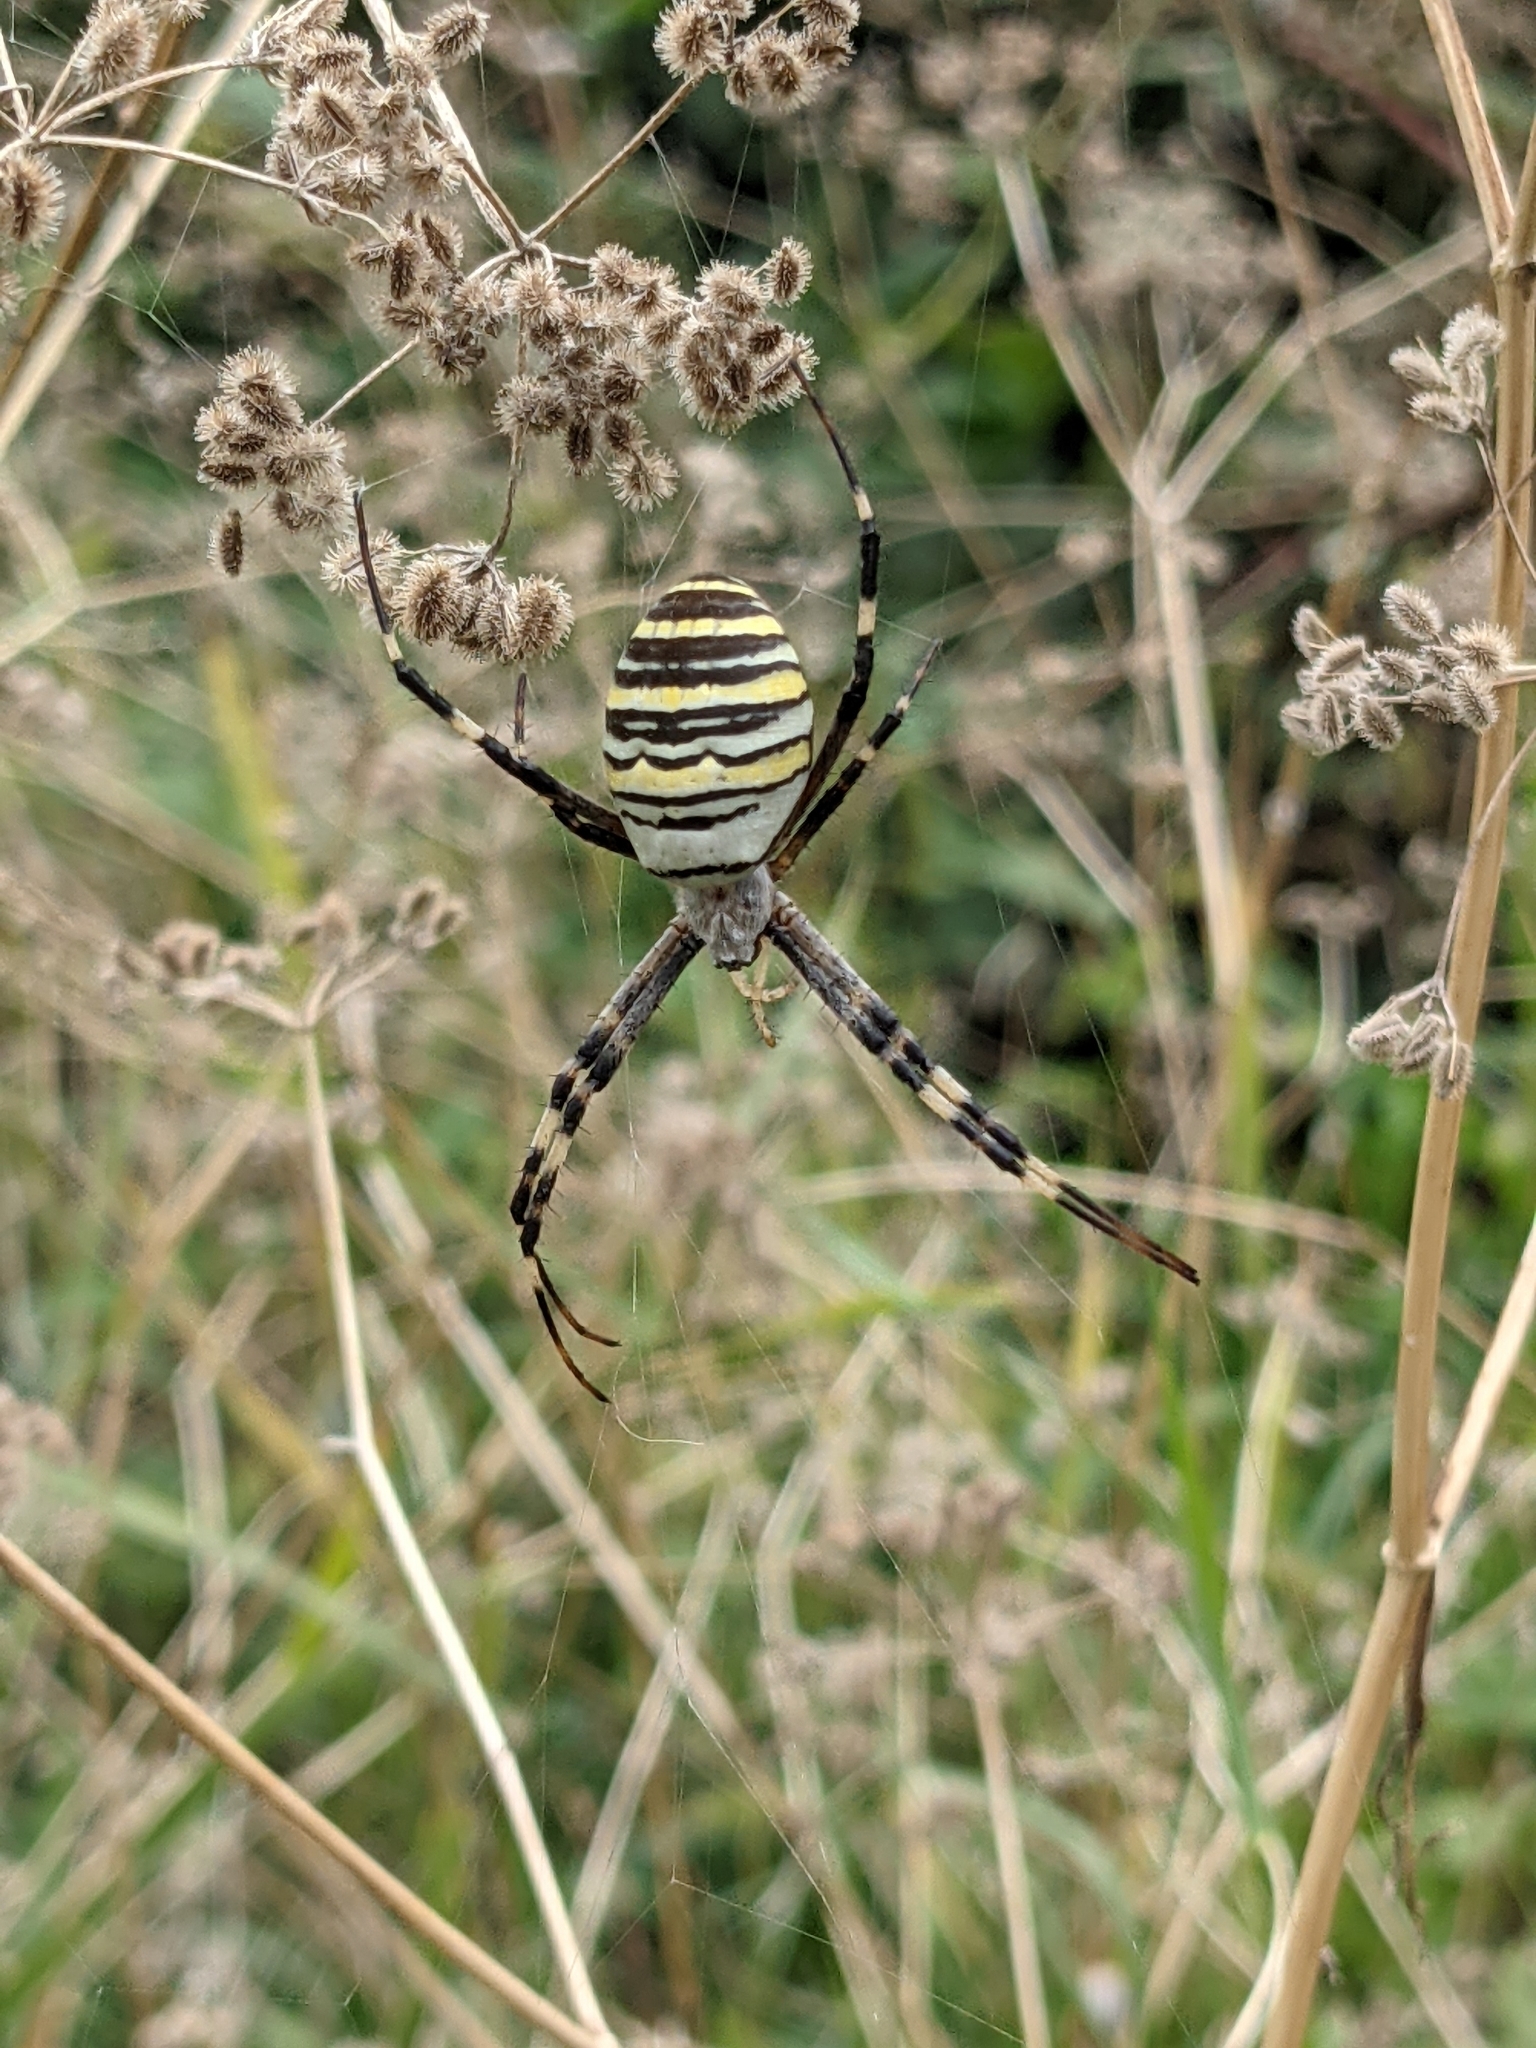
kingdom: Animalia
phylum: Arthropoda
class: Arachnida
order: Araneae
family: Araneidae
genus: Argiope
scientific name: Argiope bruennichi
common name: Wasp spider
